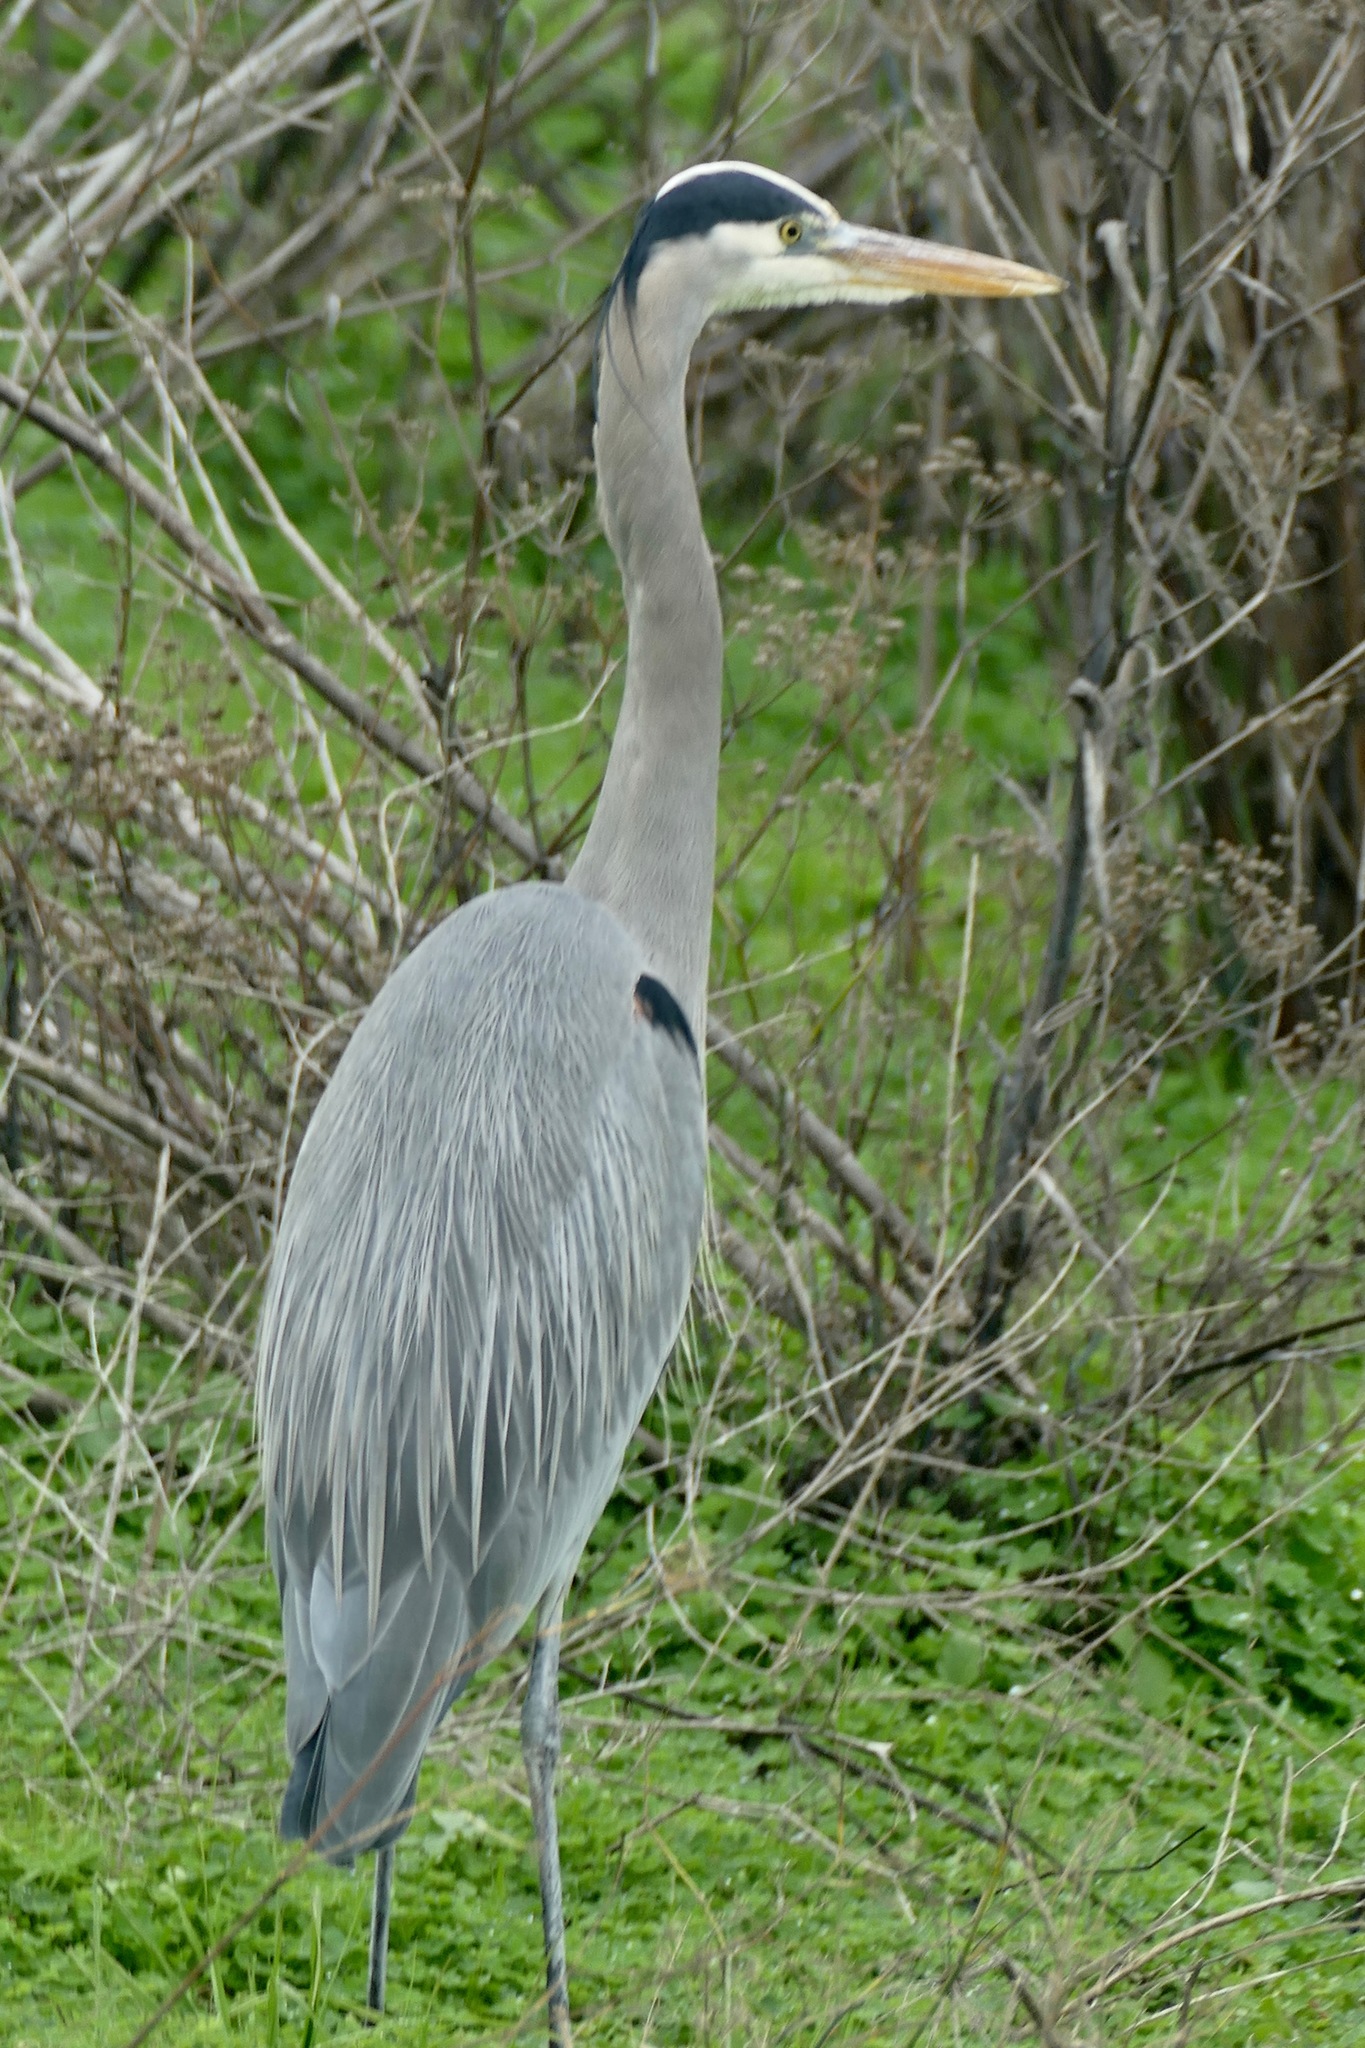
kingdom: Animalia
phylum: Chordata
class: Aves
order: Pelecaniformes
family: Ardeidae
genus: Ardea
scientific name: Ardea herodias
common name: Great blue heron
